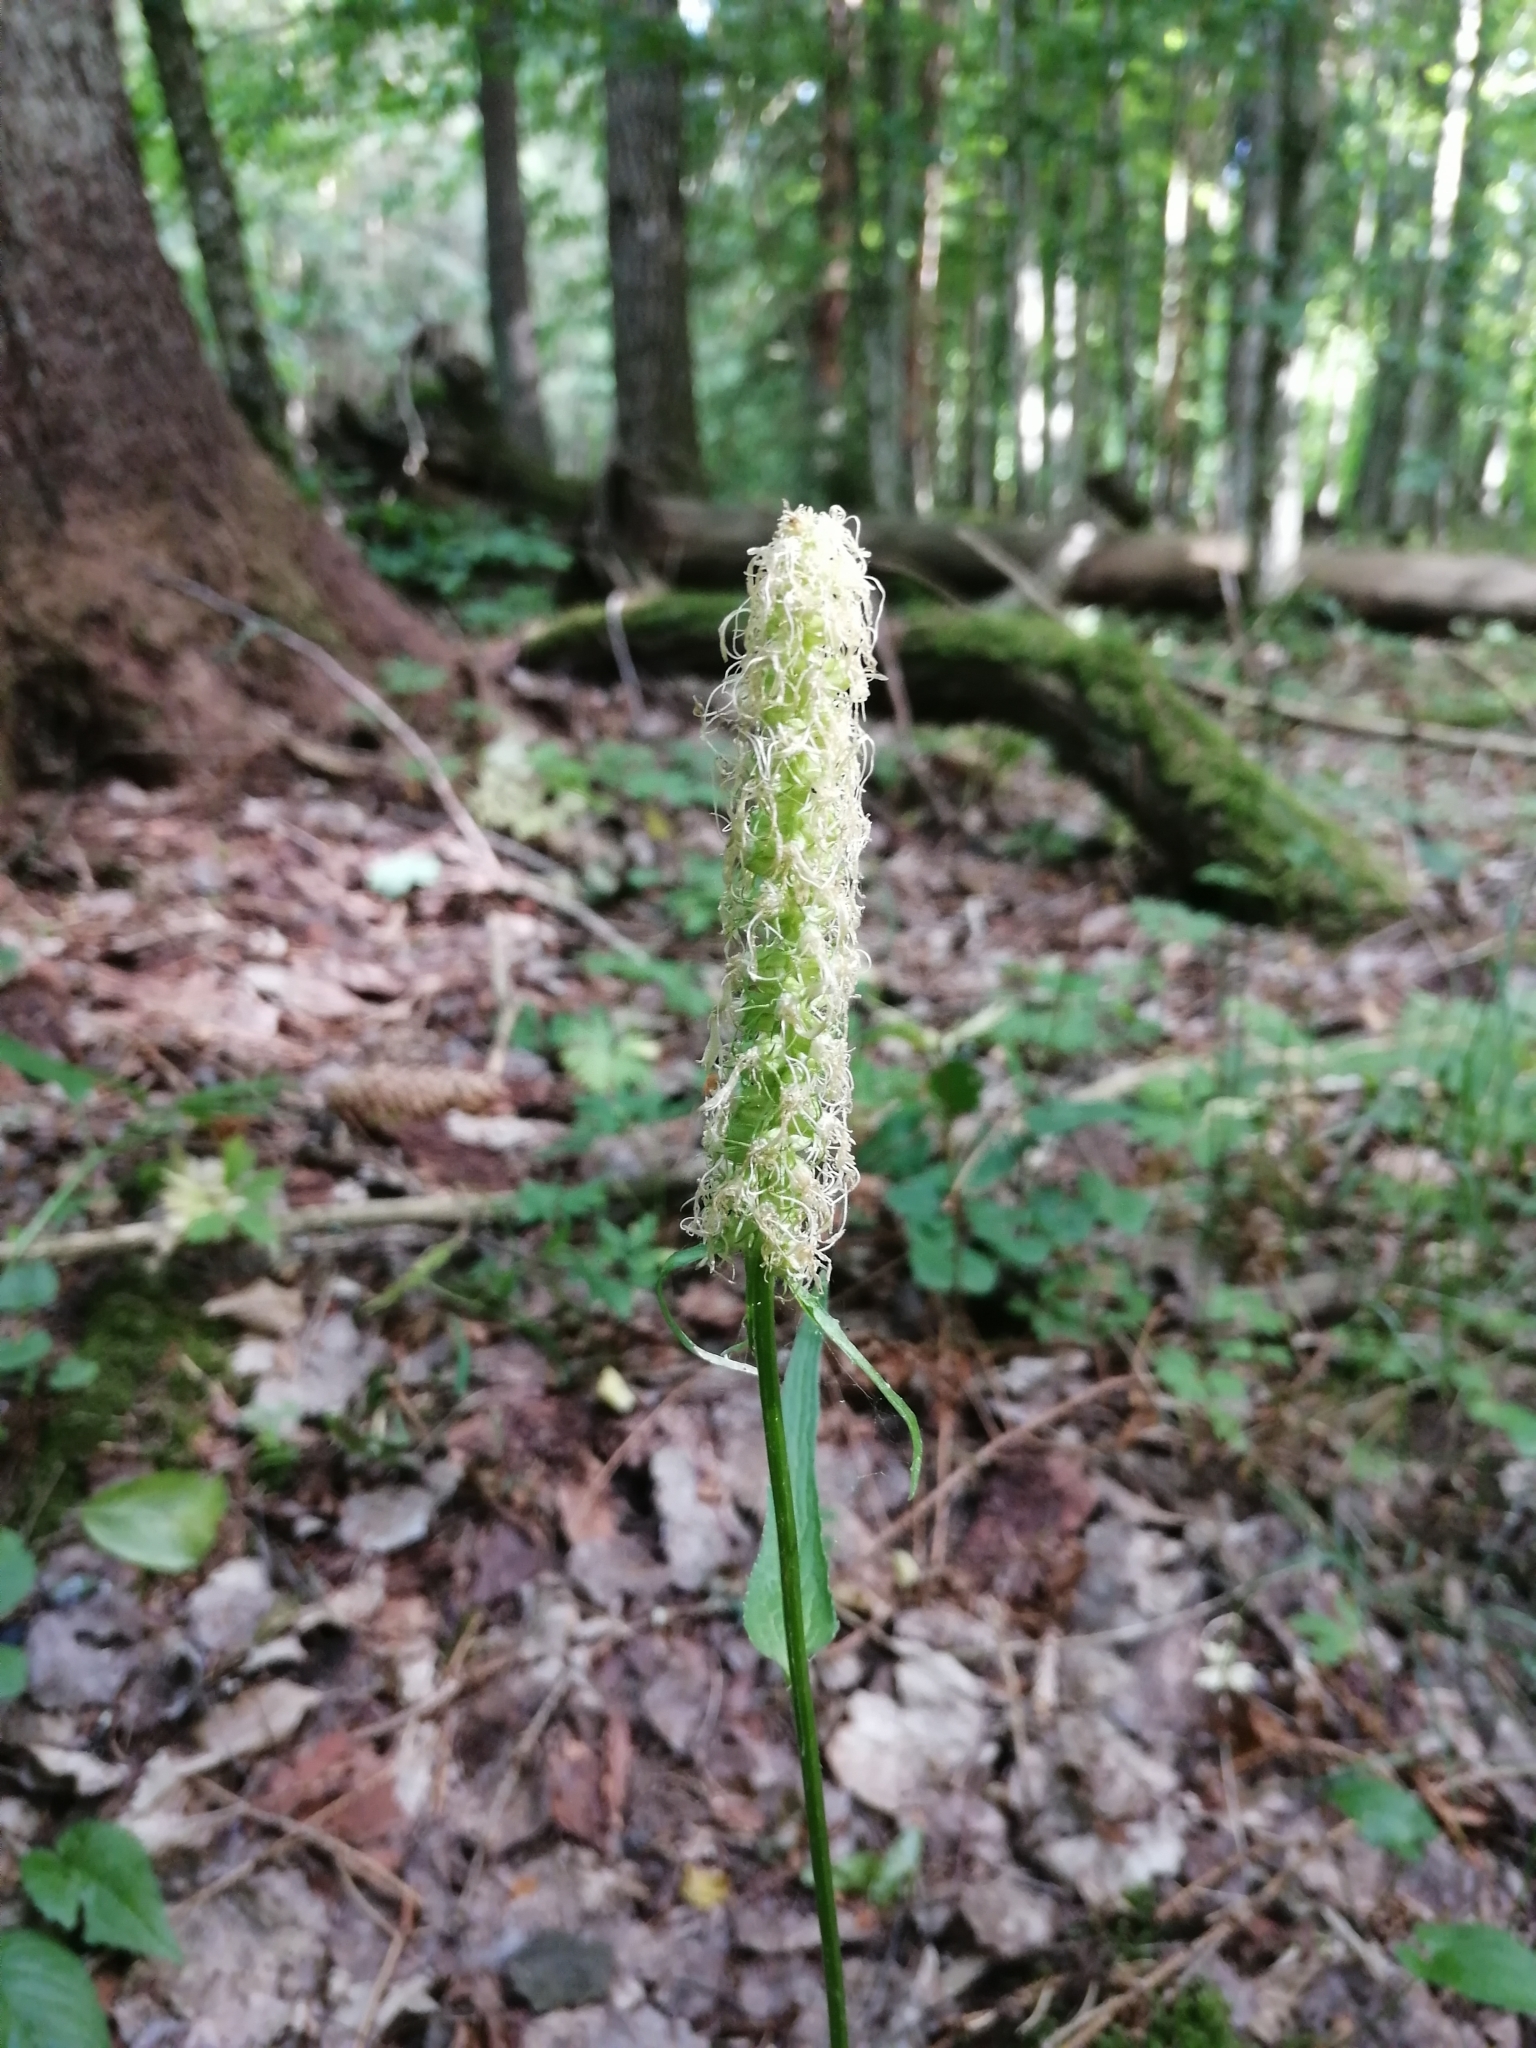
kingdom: Plantae
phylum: Tracheophyta
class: Magnoliopsida
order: Asterales
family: Campanulaceae
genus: Phyteuma
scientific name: Phyteuma spicatum
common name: Spiked rampion
